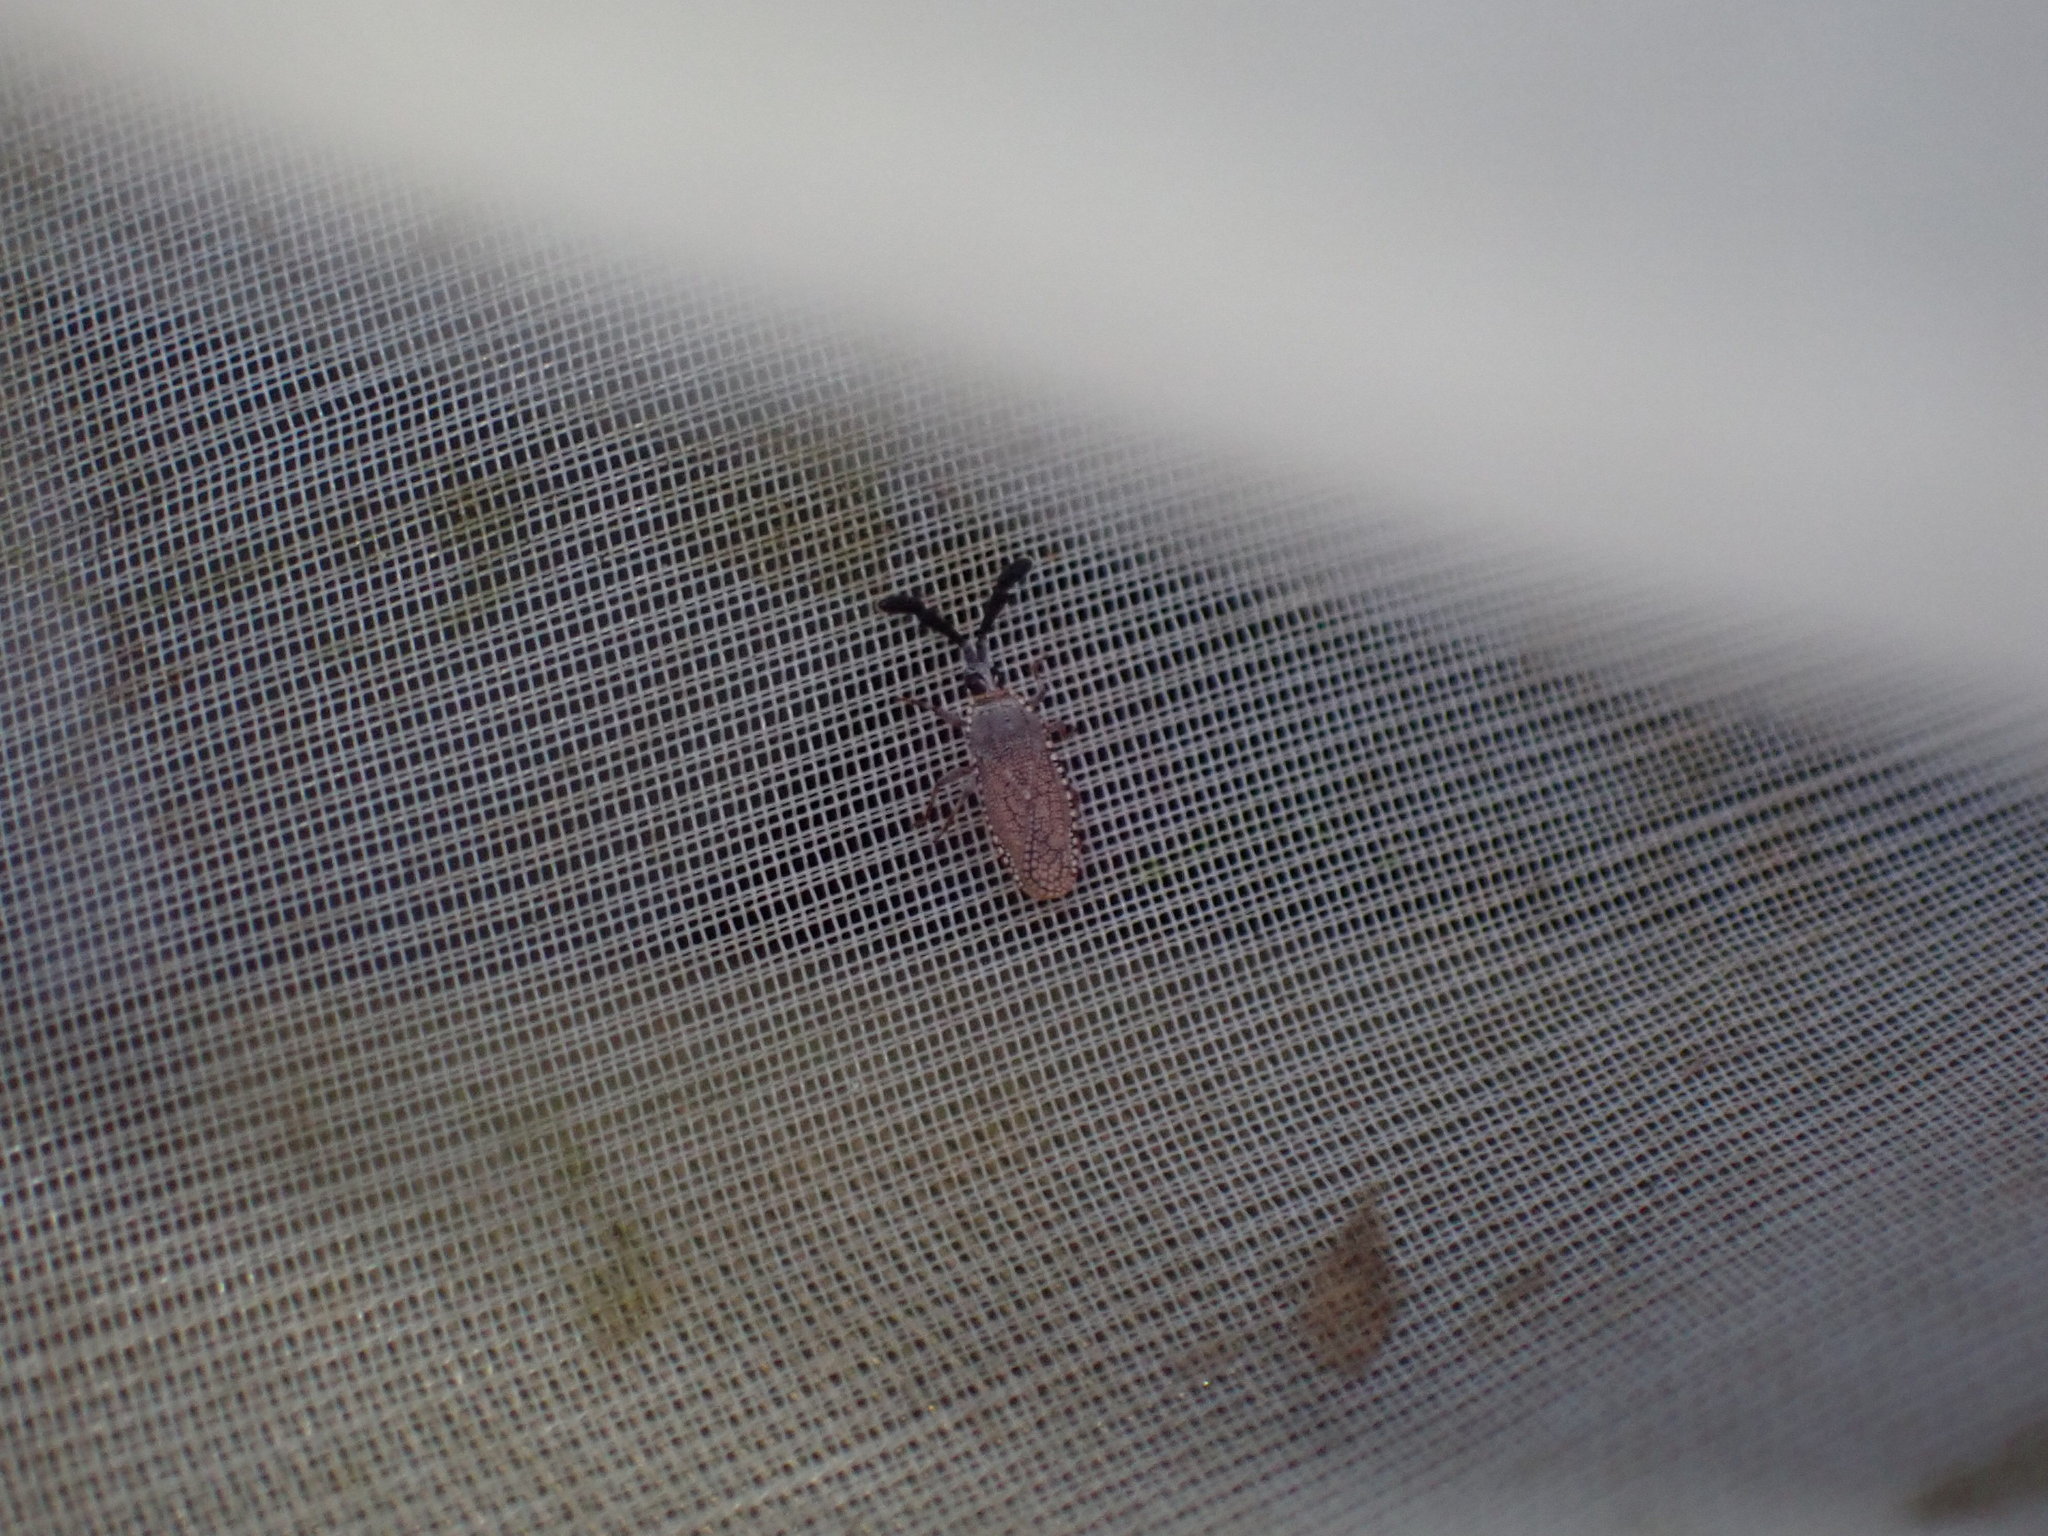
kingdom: Animalia
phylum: Arthropoda
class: Insecta
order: Hemiptera
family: Tingidae
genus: Copium
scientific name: Copium clavicorne
